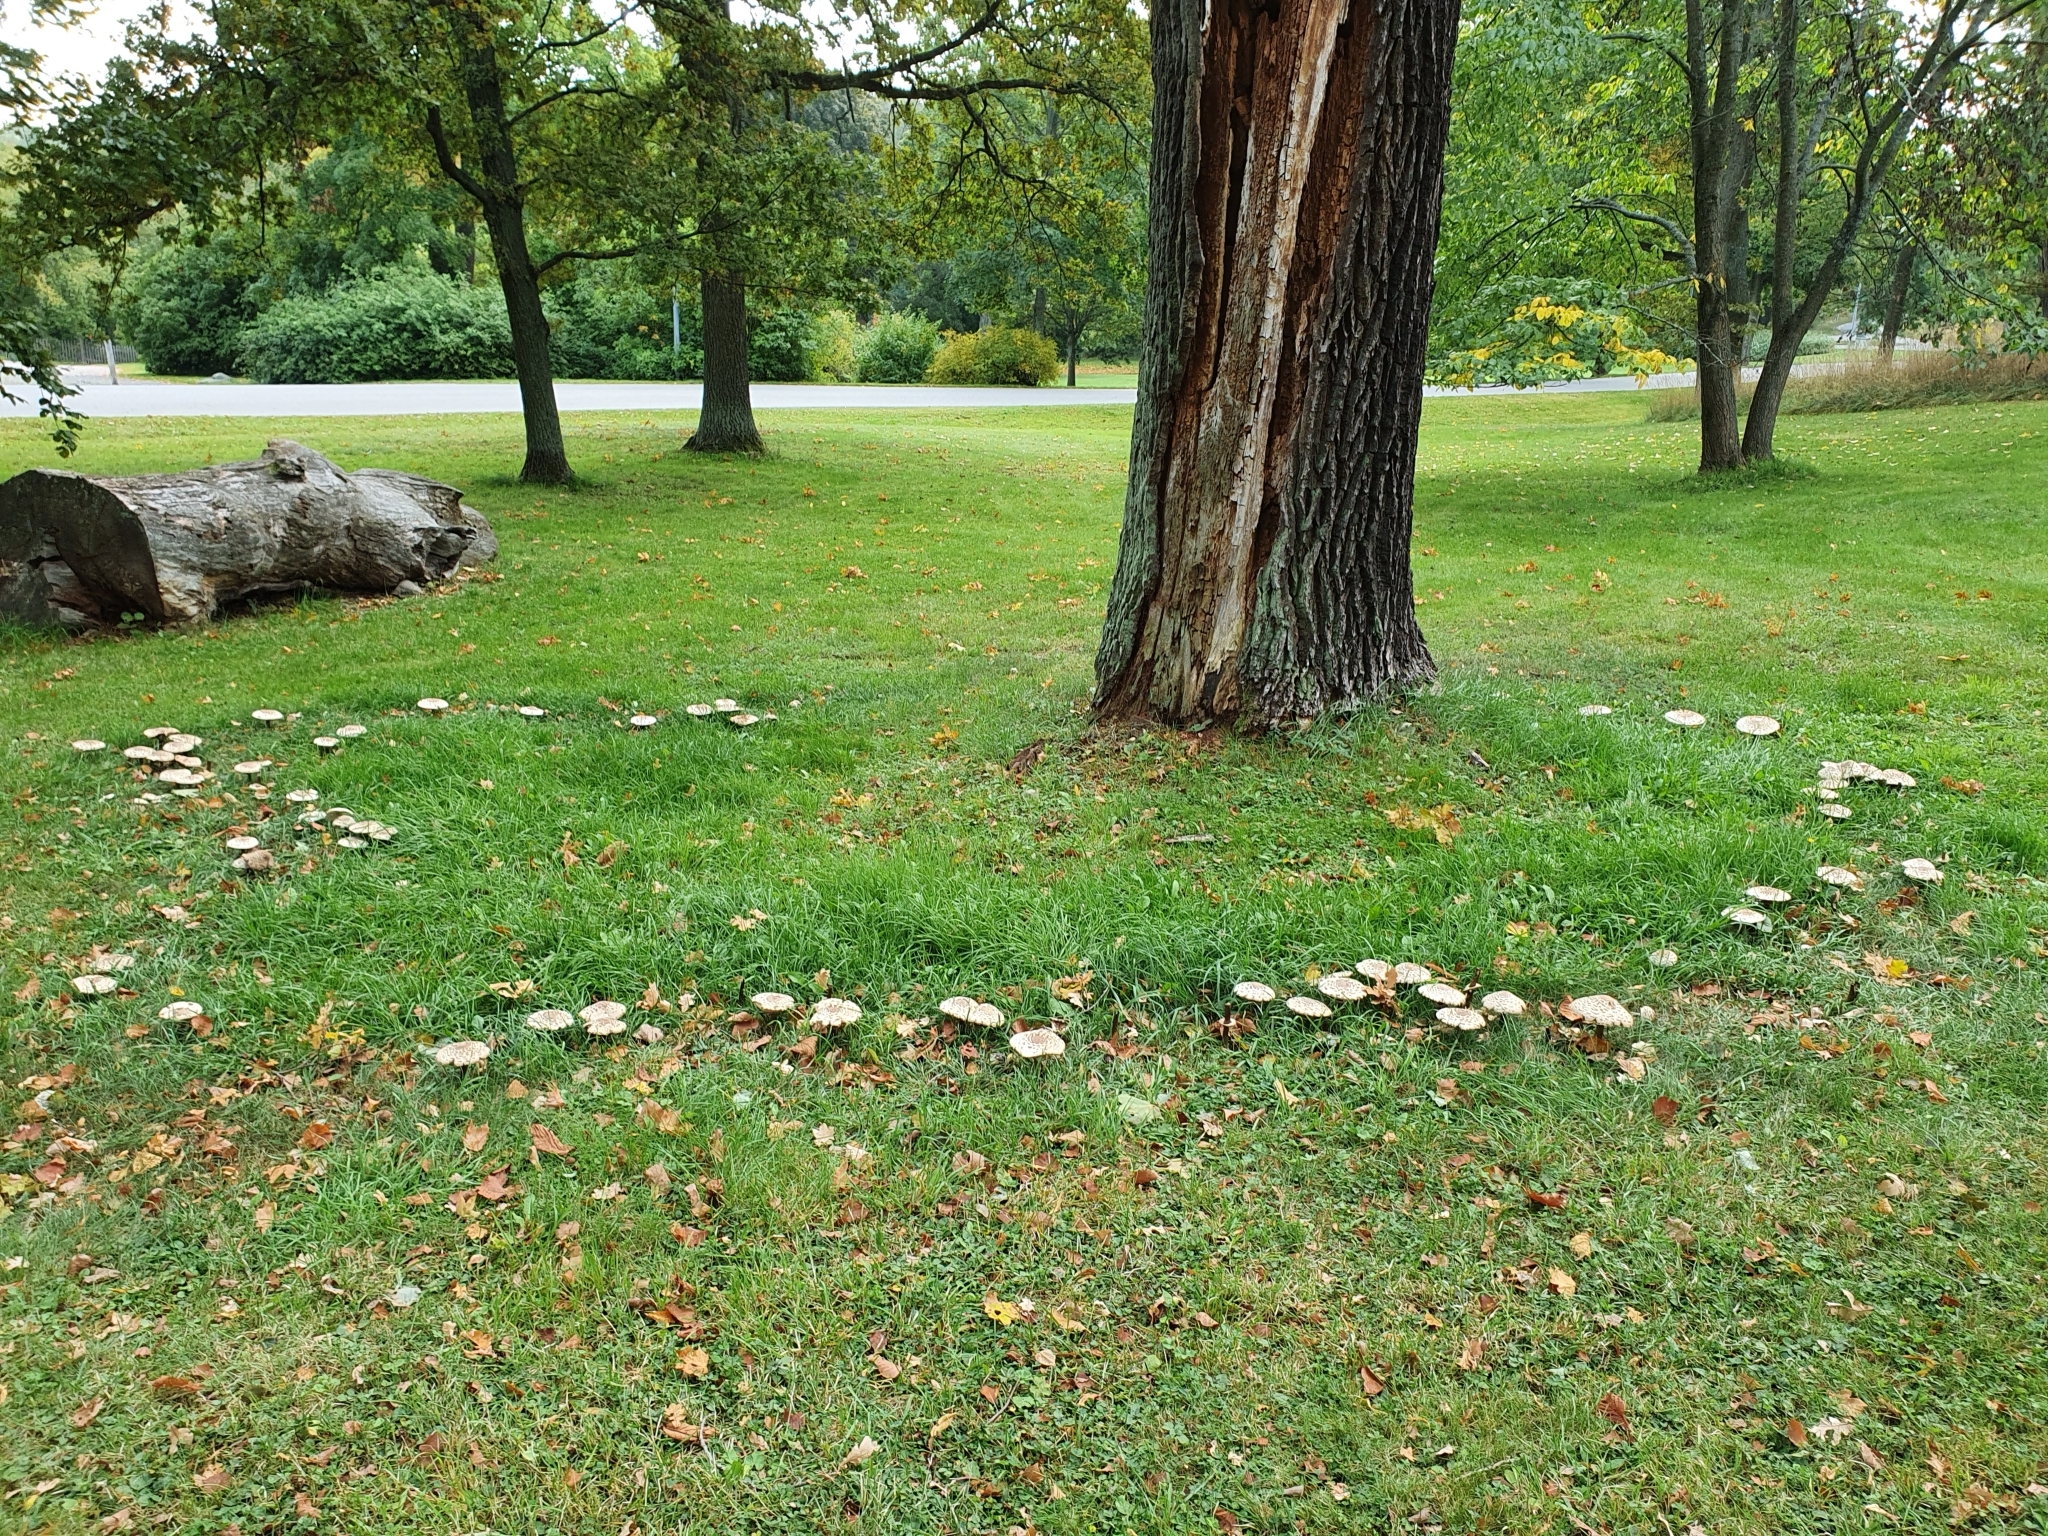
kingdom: Fungi
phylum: Basidiomycota
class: Agaricomycetes
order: Agaricales
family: Agaricaceae
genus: Chlorophyllum
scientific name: Chlorophyllum rhacodes
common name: Shaggy parasol
